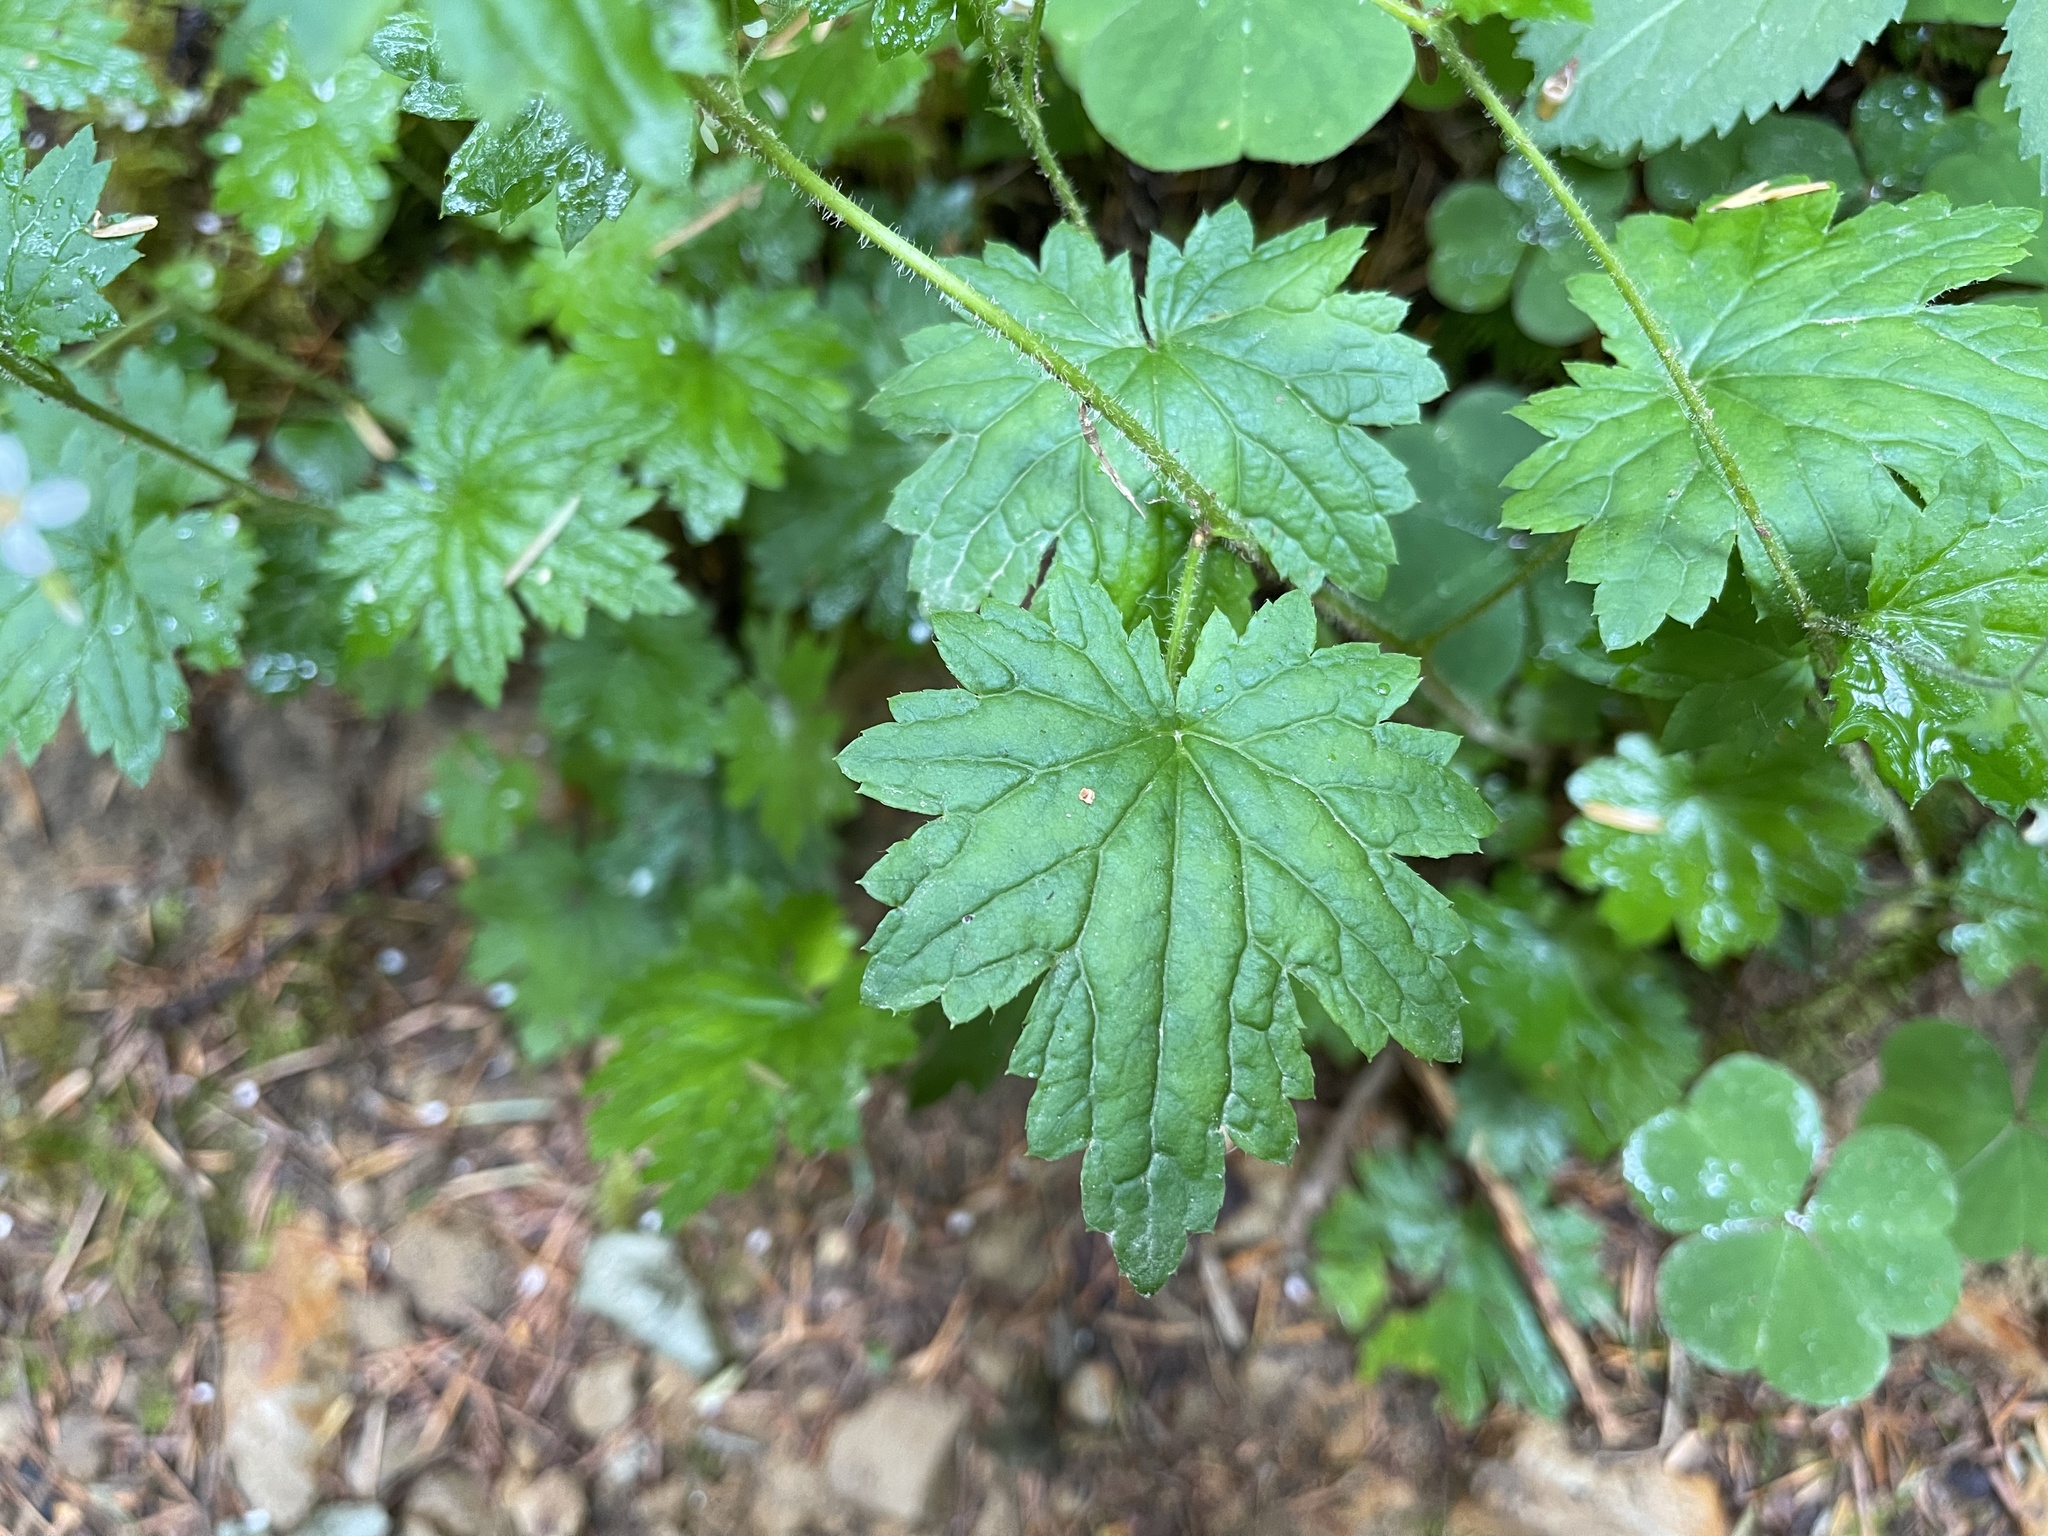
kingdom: Plantae
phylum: Tracheophyta
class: Magnoliopsida
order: Saxifragales
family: Saxifragaceae
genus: Boykinia
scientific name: Boykinia occidentalis
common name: Coast boykinia
